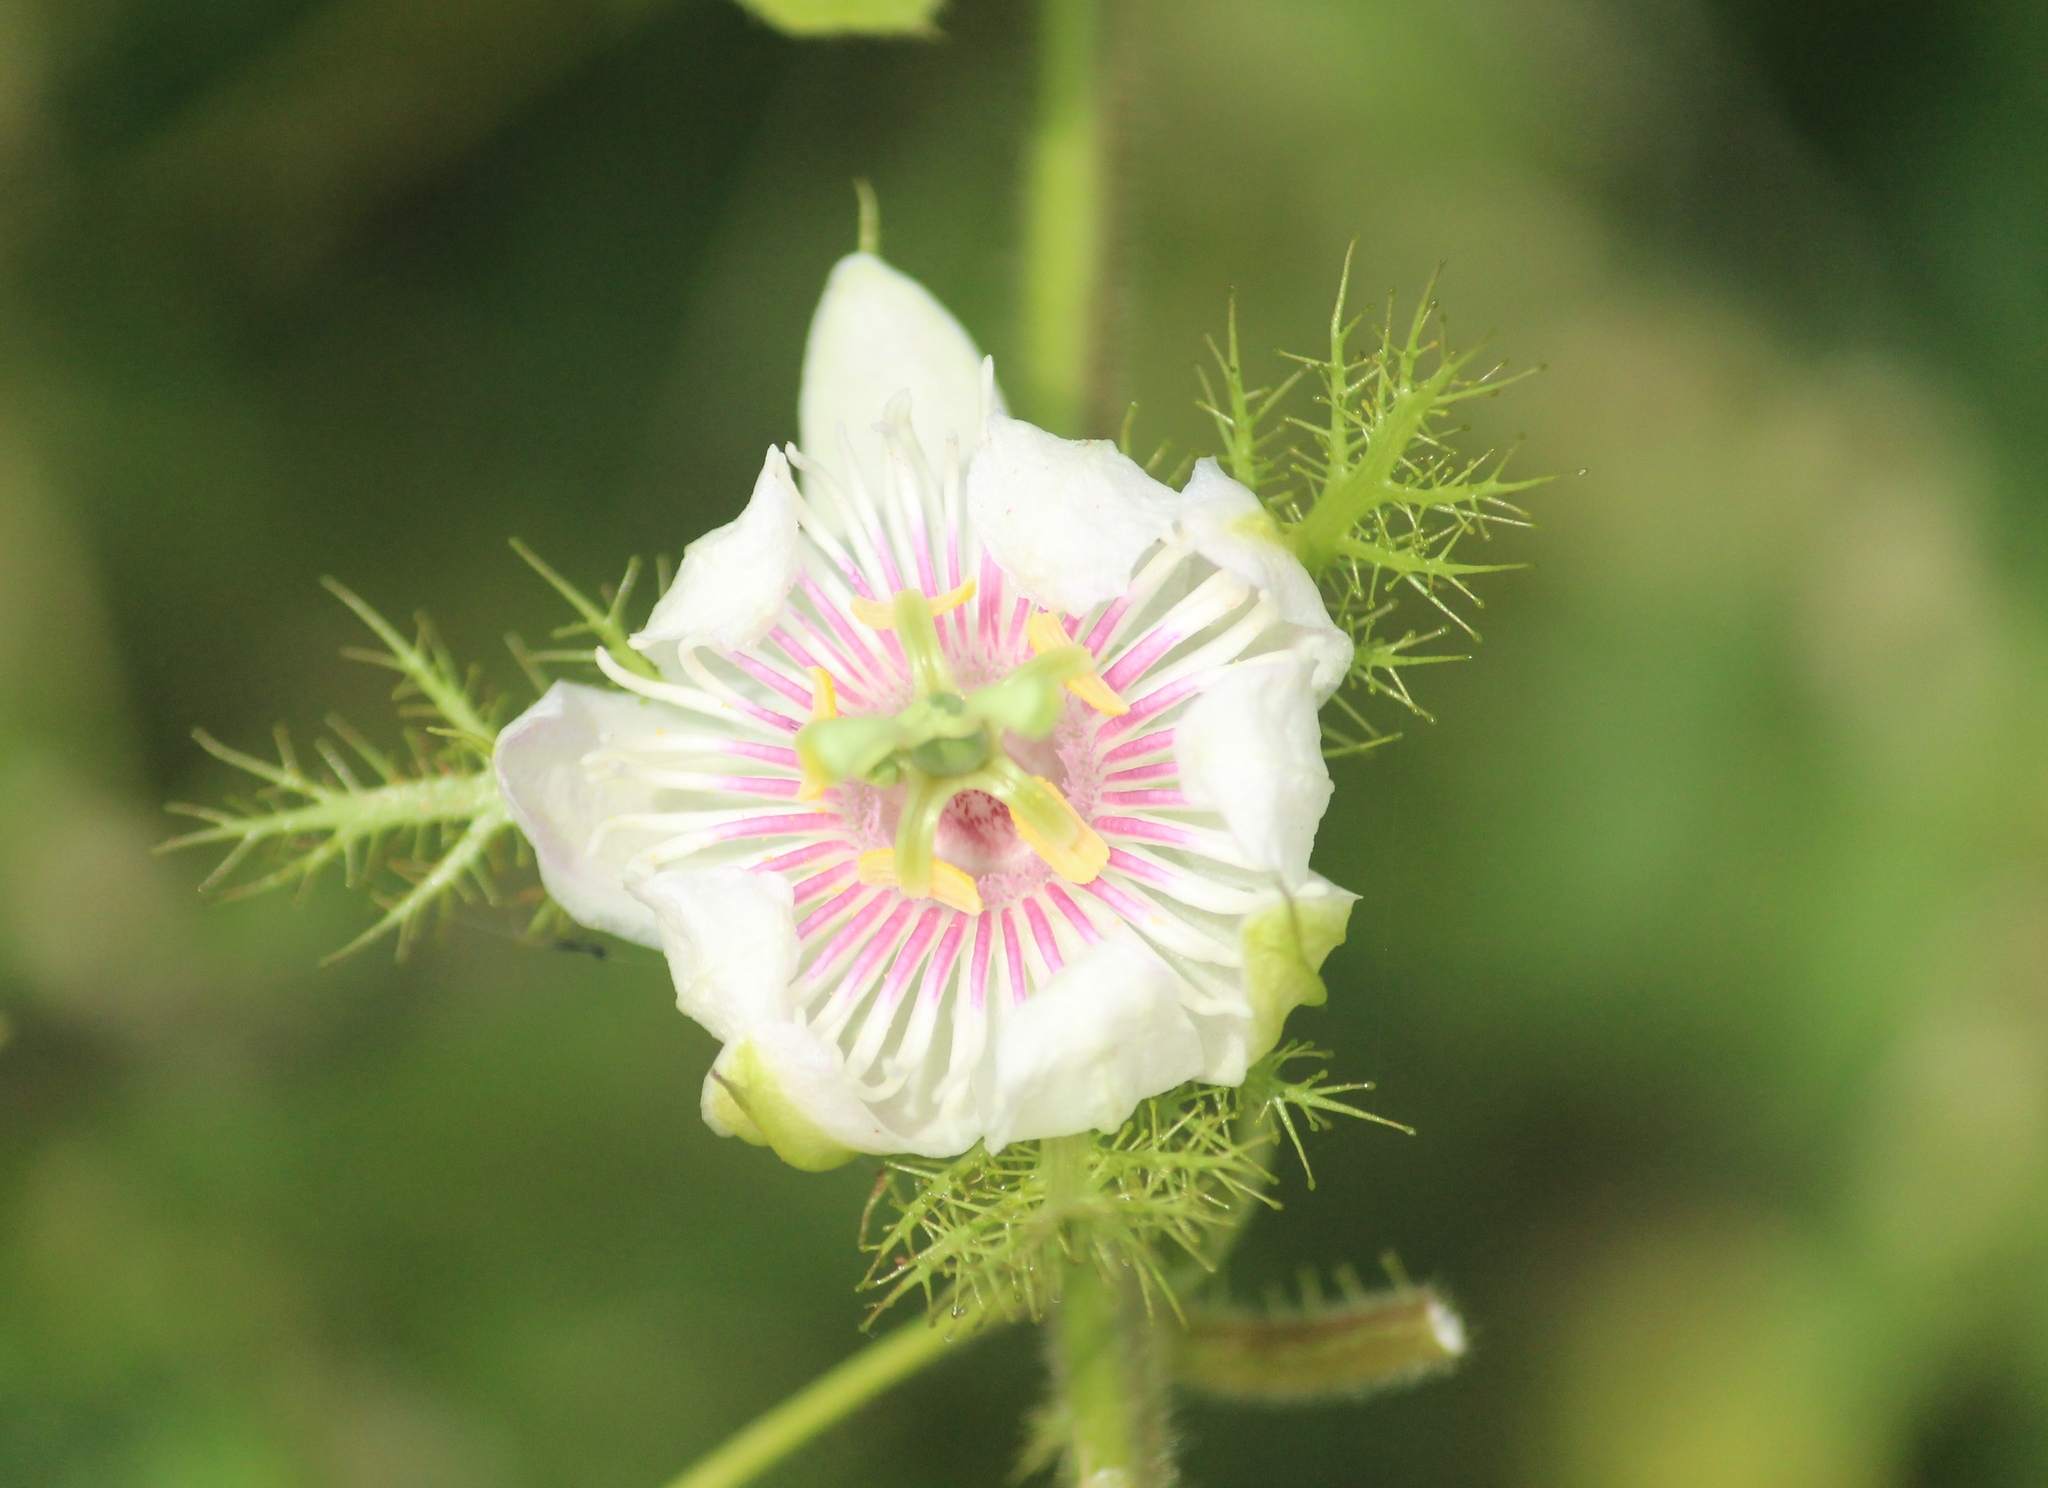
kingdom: Plantae
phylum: Tracheophyta
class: Magnoliopsida
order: Malpighiales
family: Passifloraceae
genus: Passiflora
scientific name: Passiflora foetida
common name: Fetid passionflower
